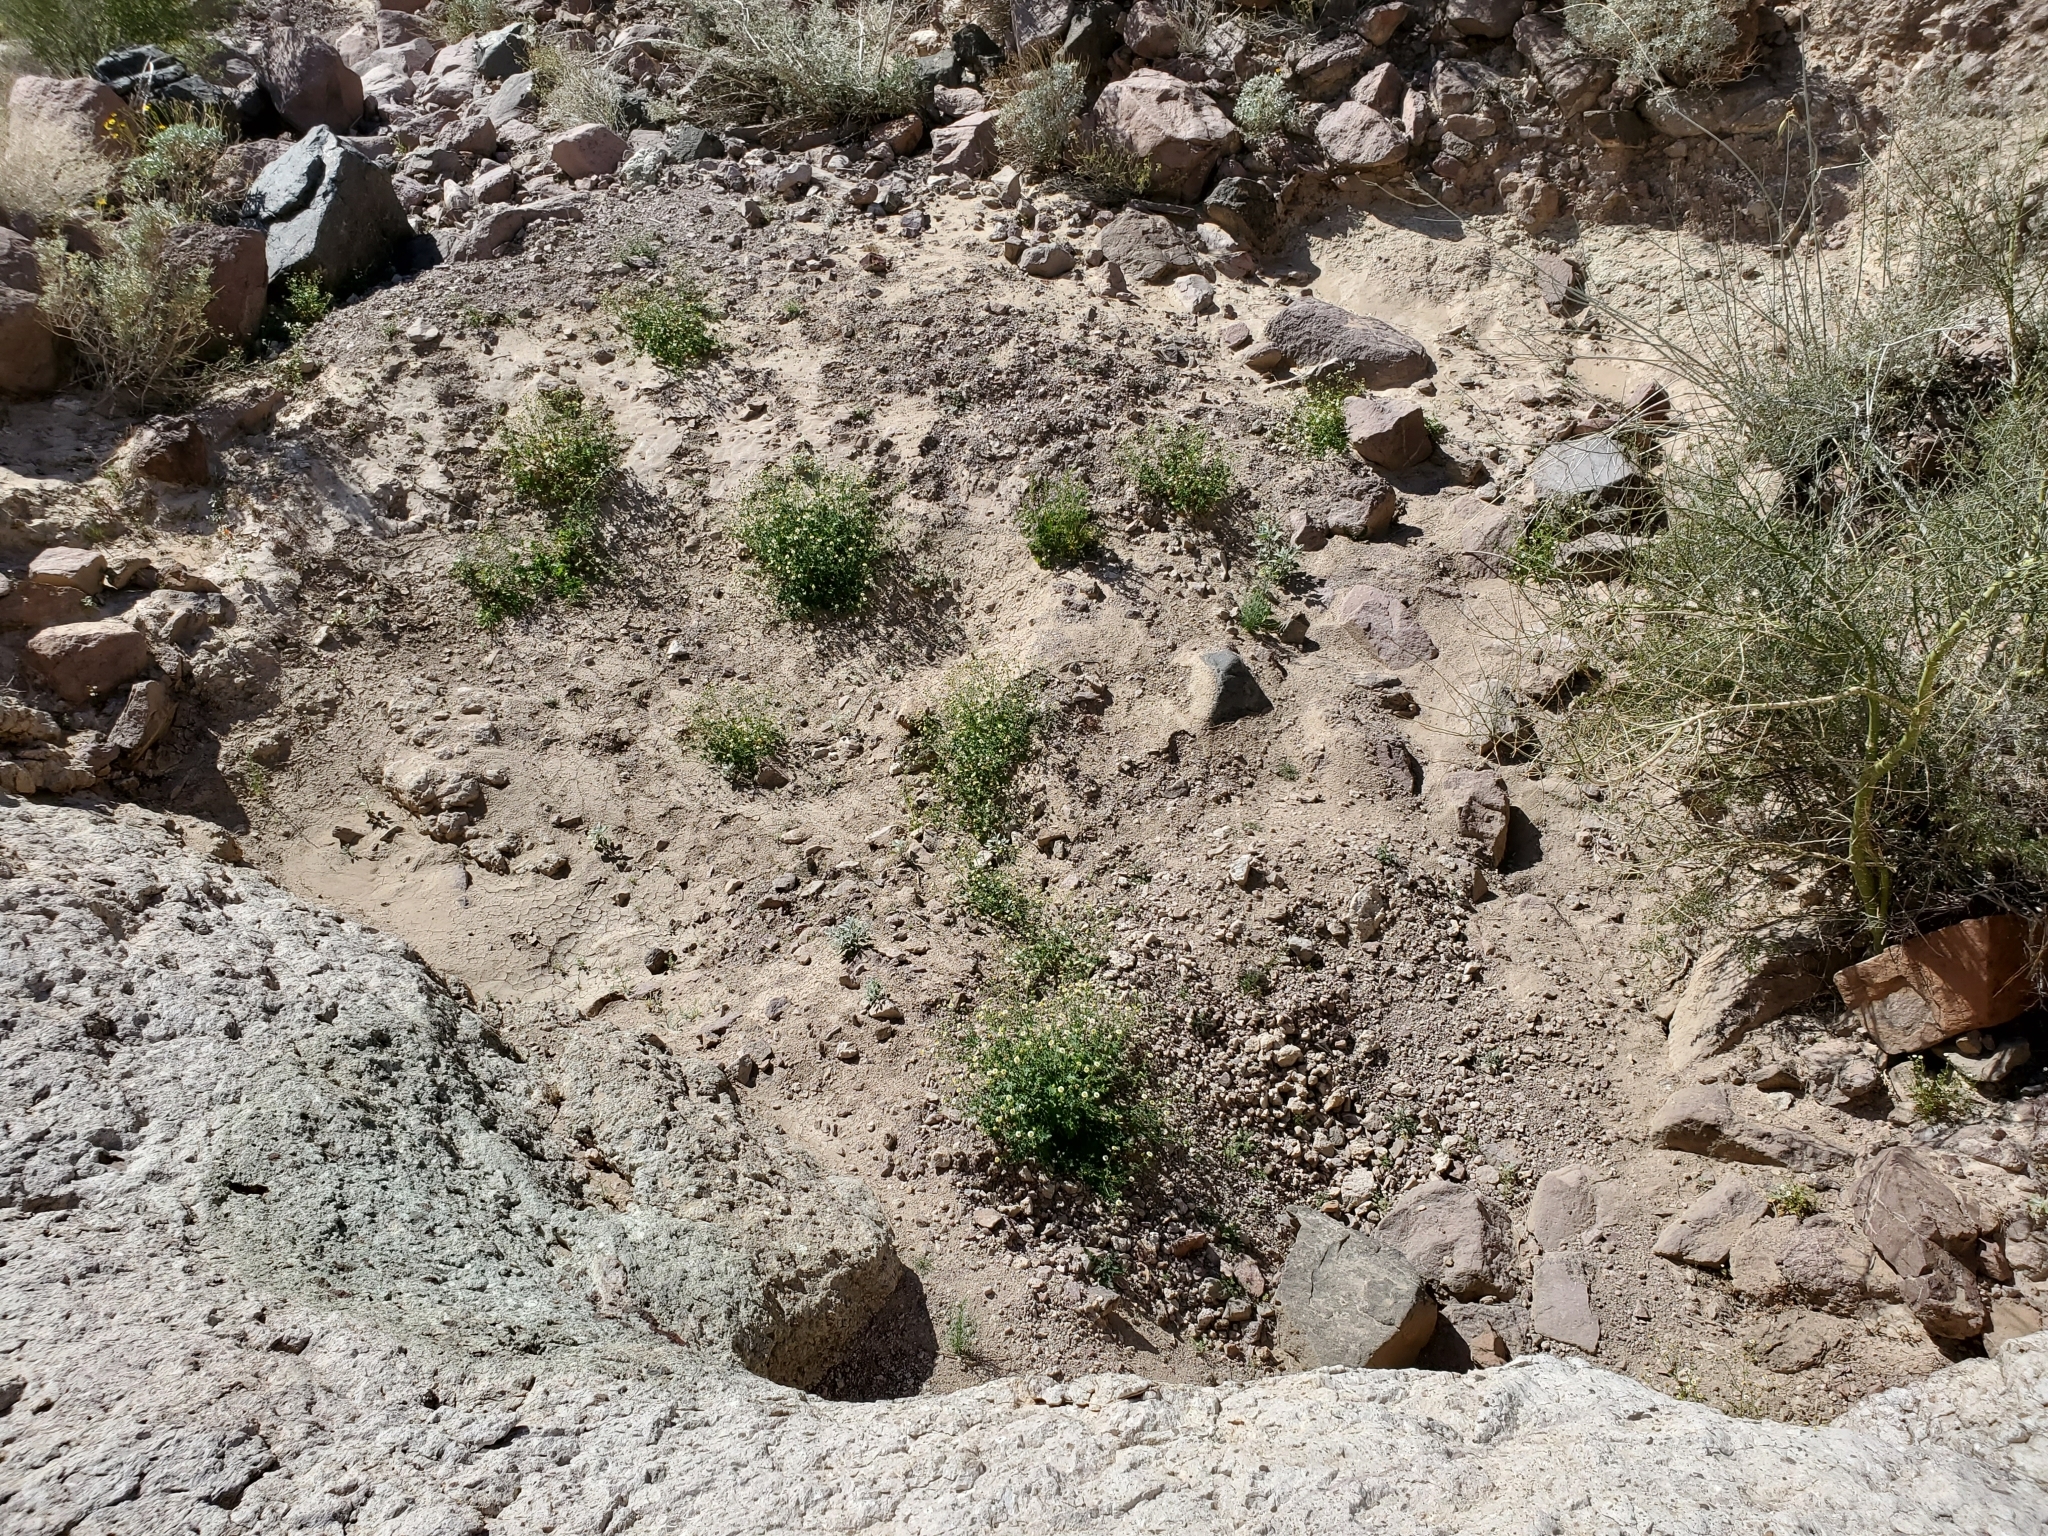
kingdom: Plantae
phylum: Tracheophyta
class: Magnoliopsida
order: Asterales
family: Asteraceae
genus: Laphamia
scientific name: Laphamia emoryi
